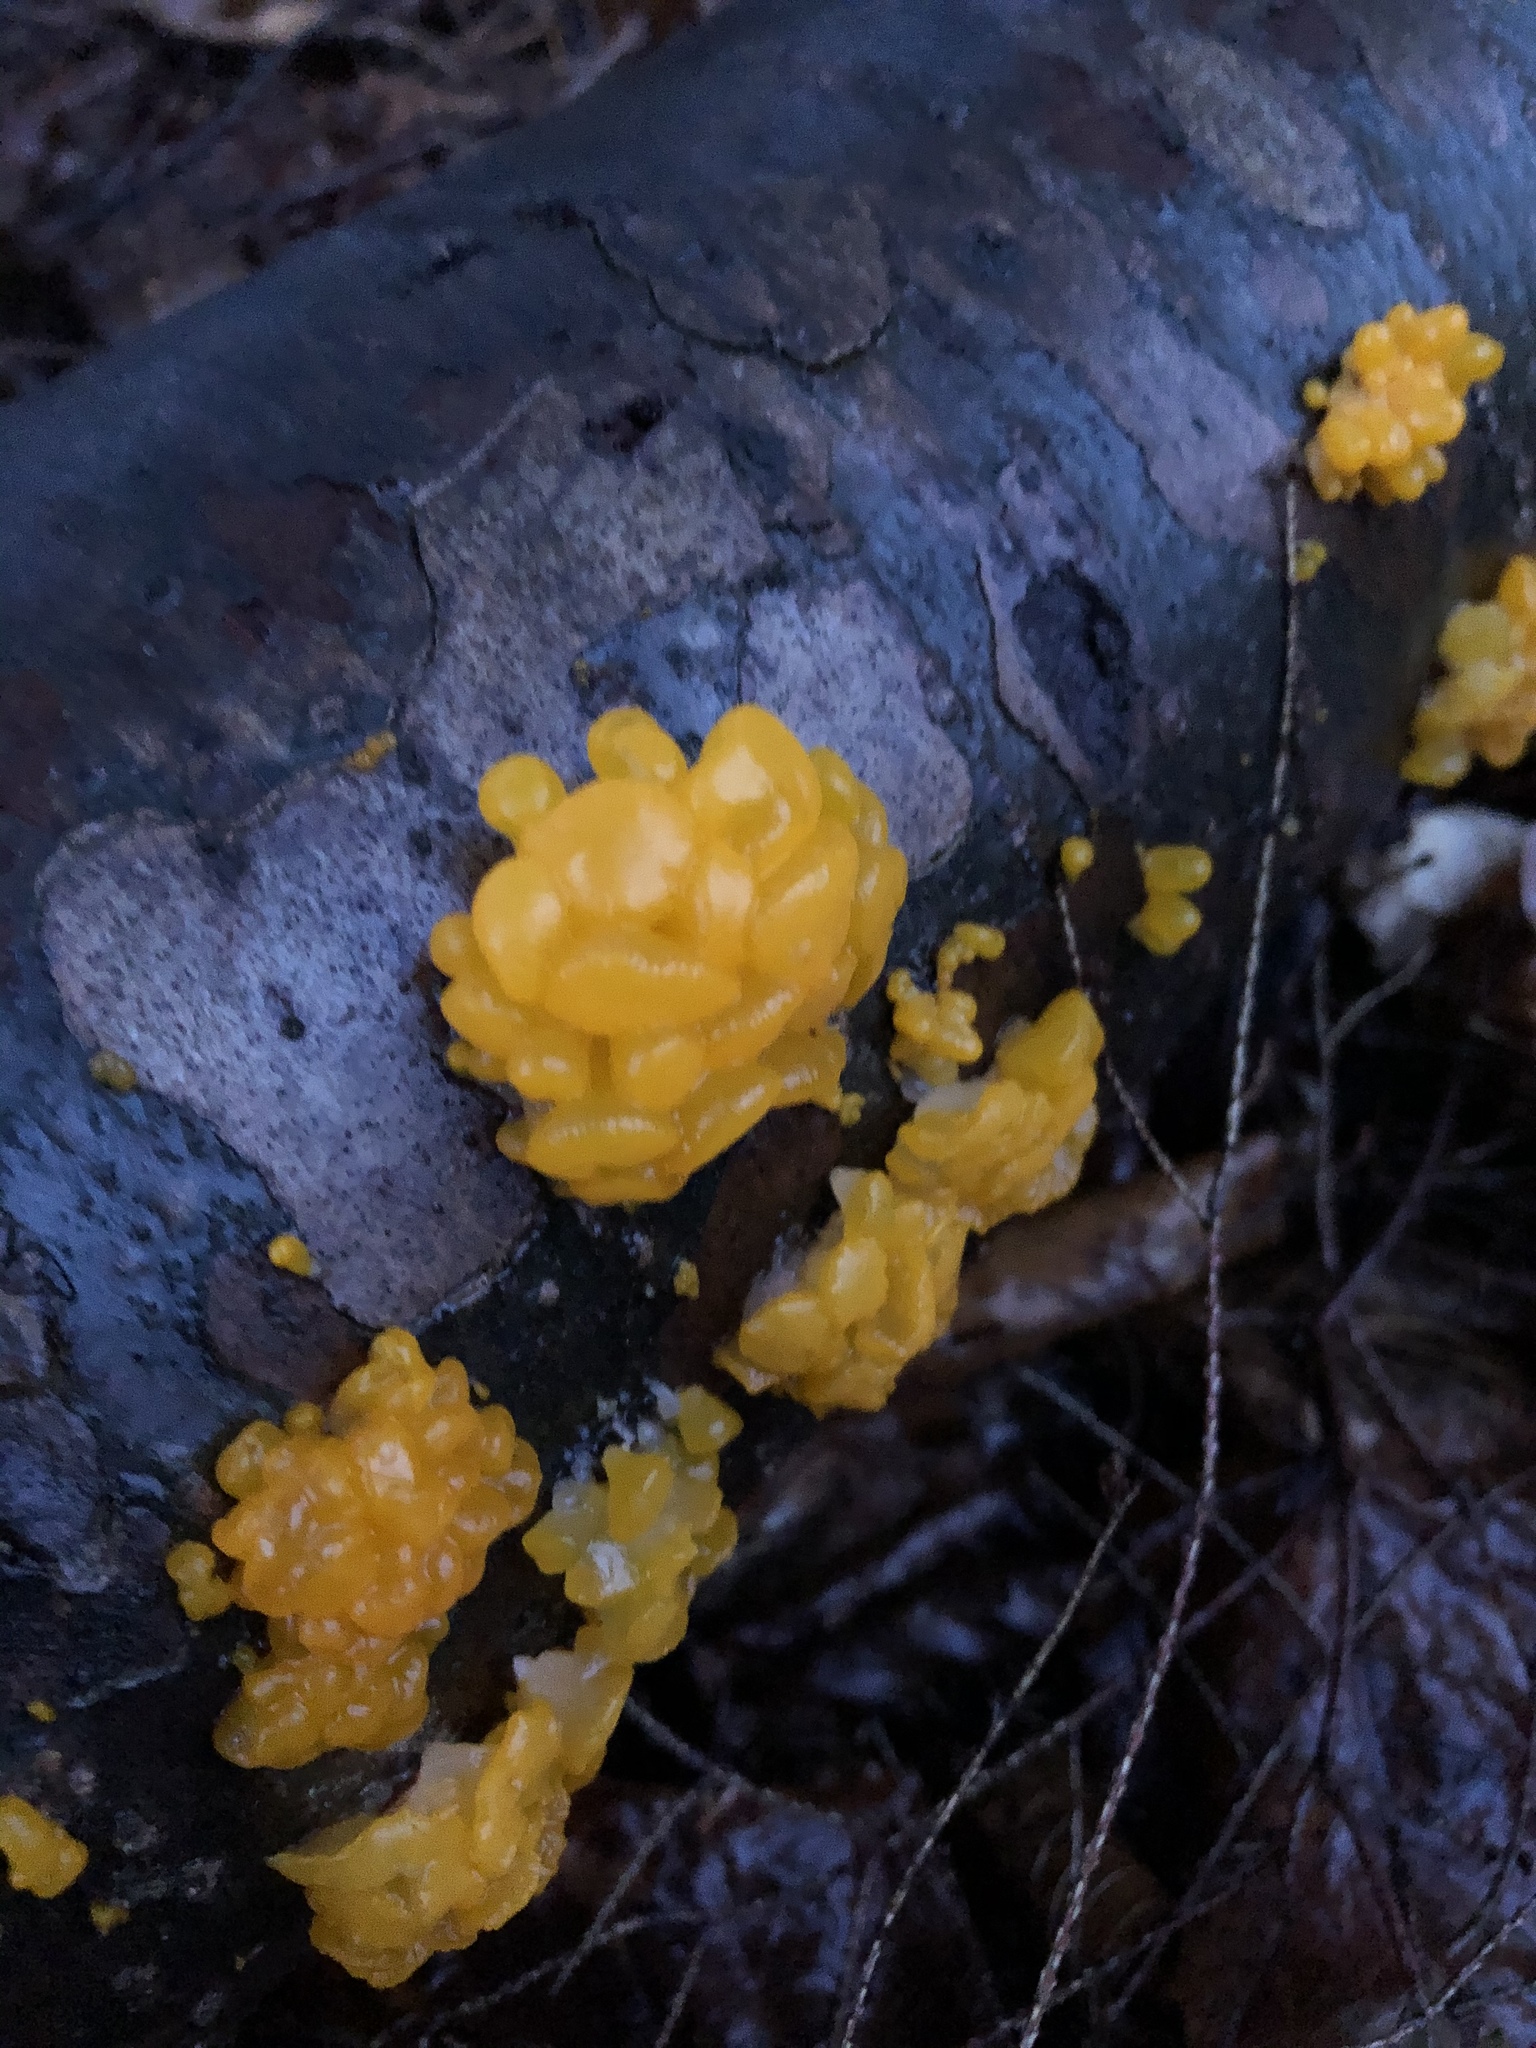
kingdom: Fungi
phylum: Basidiomycota
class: Dacrymycetes
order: Dacrymycetales
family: Dacrymycetaceae
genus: Dacrymyces
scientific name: Dacrymyces chrysospermus
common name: Orange jelly spot
